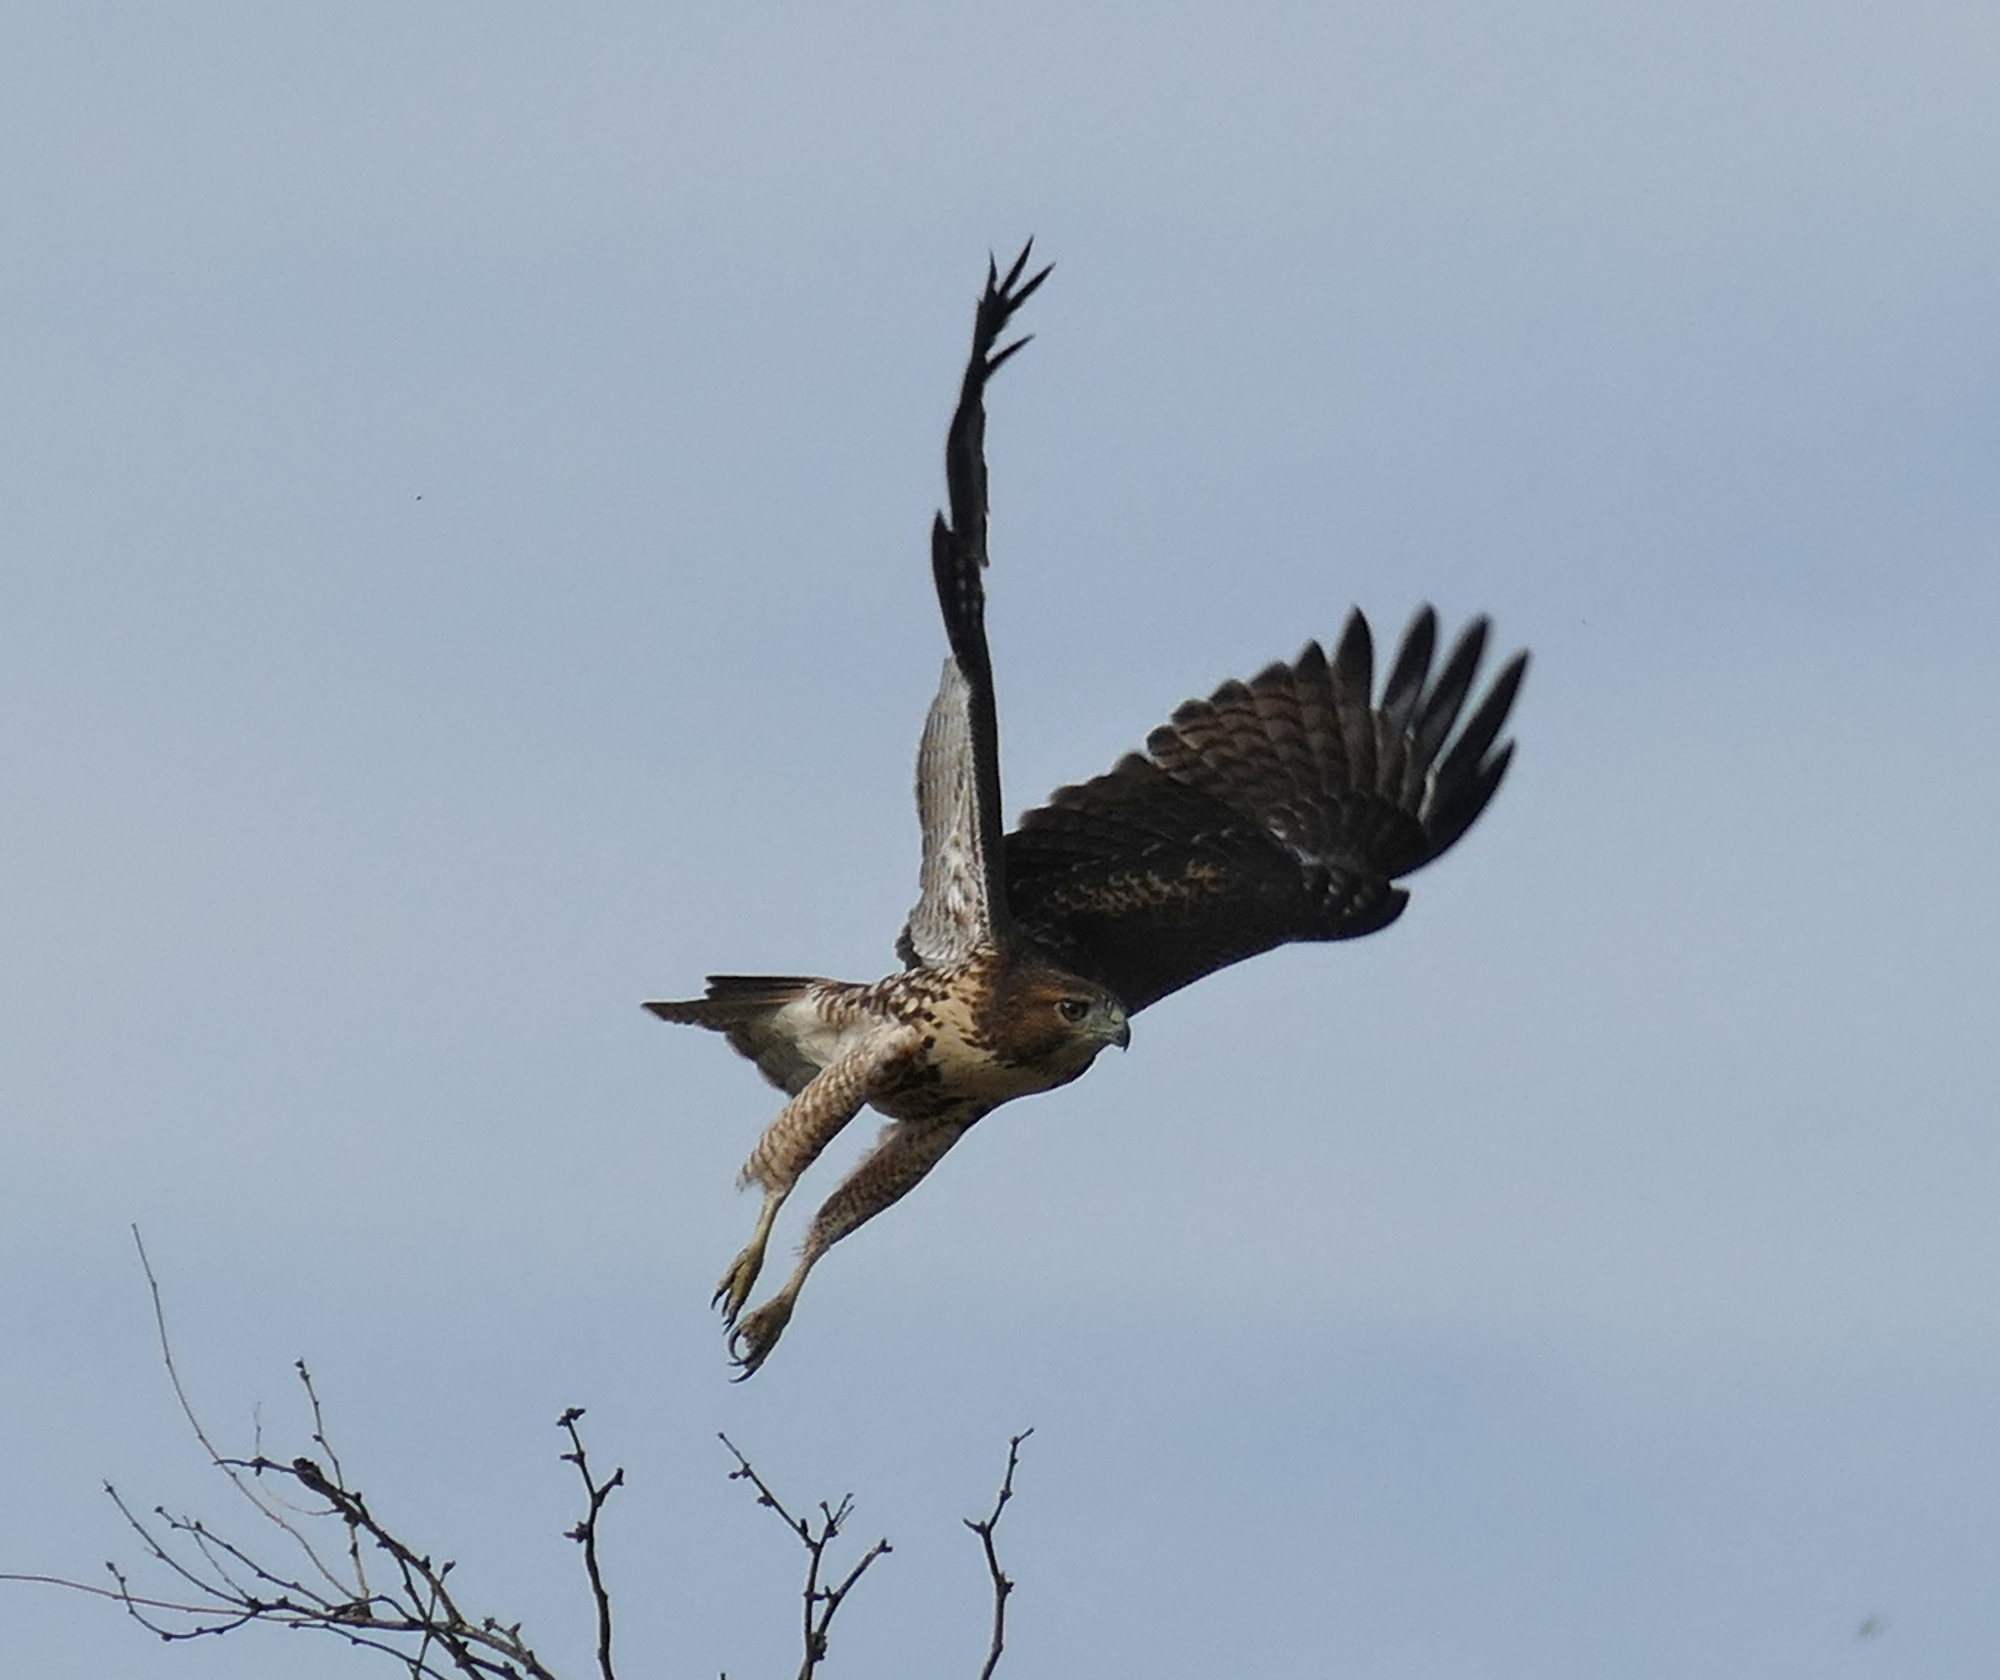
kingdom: Animalia
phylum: Chordata
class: Aves
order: Accipitriformes
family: Accipitridae
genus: Buteo
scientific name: Buteo jamaicensis
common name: Red-tailed hawk
